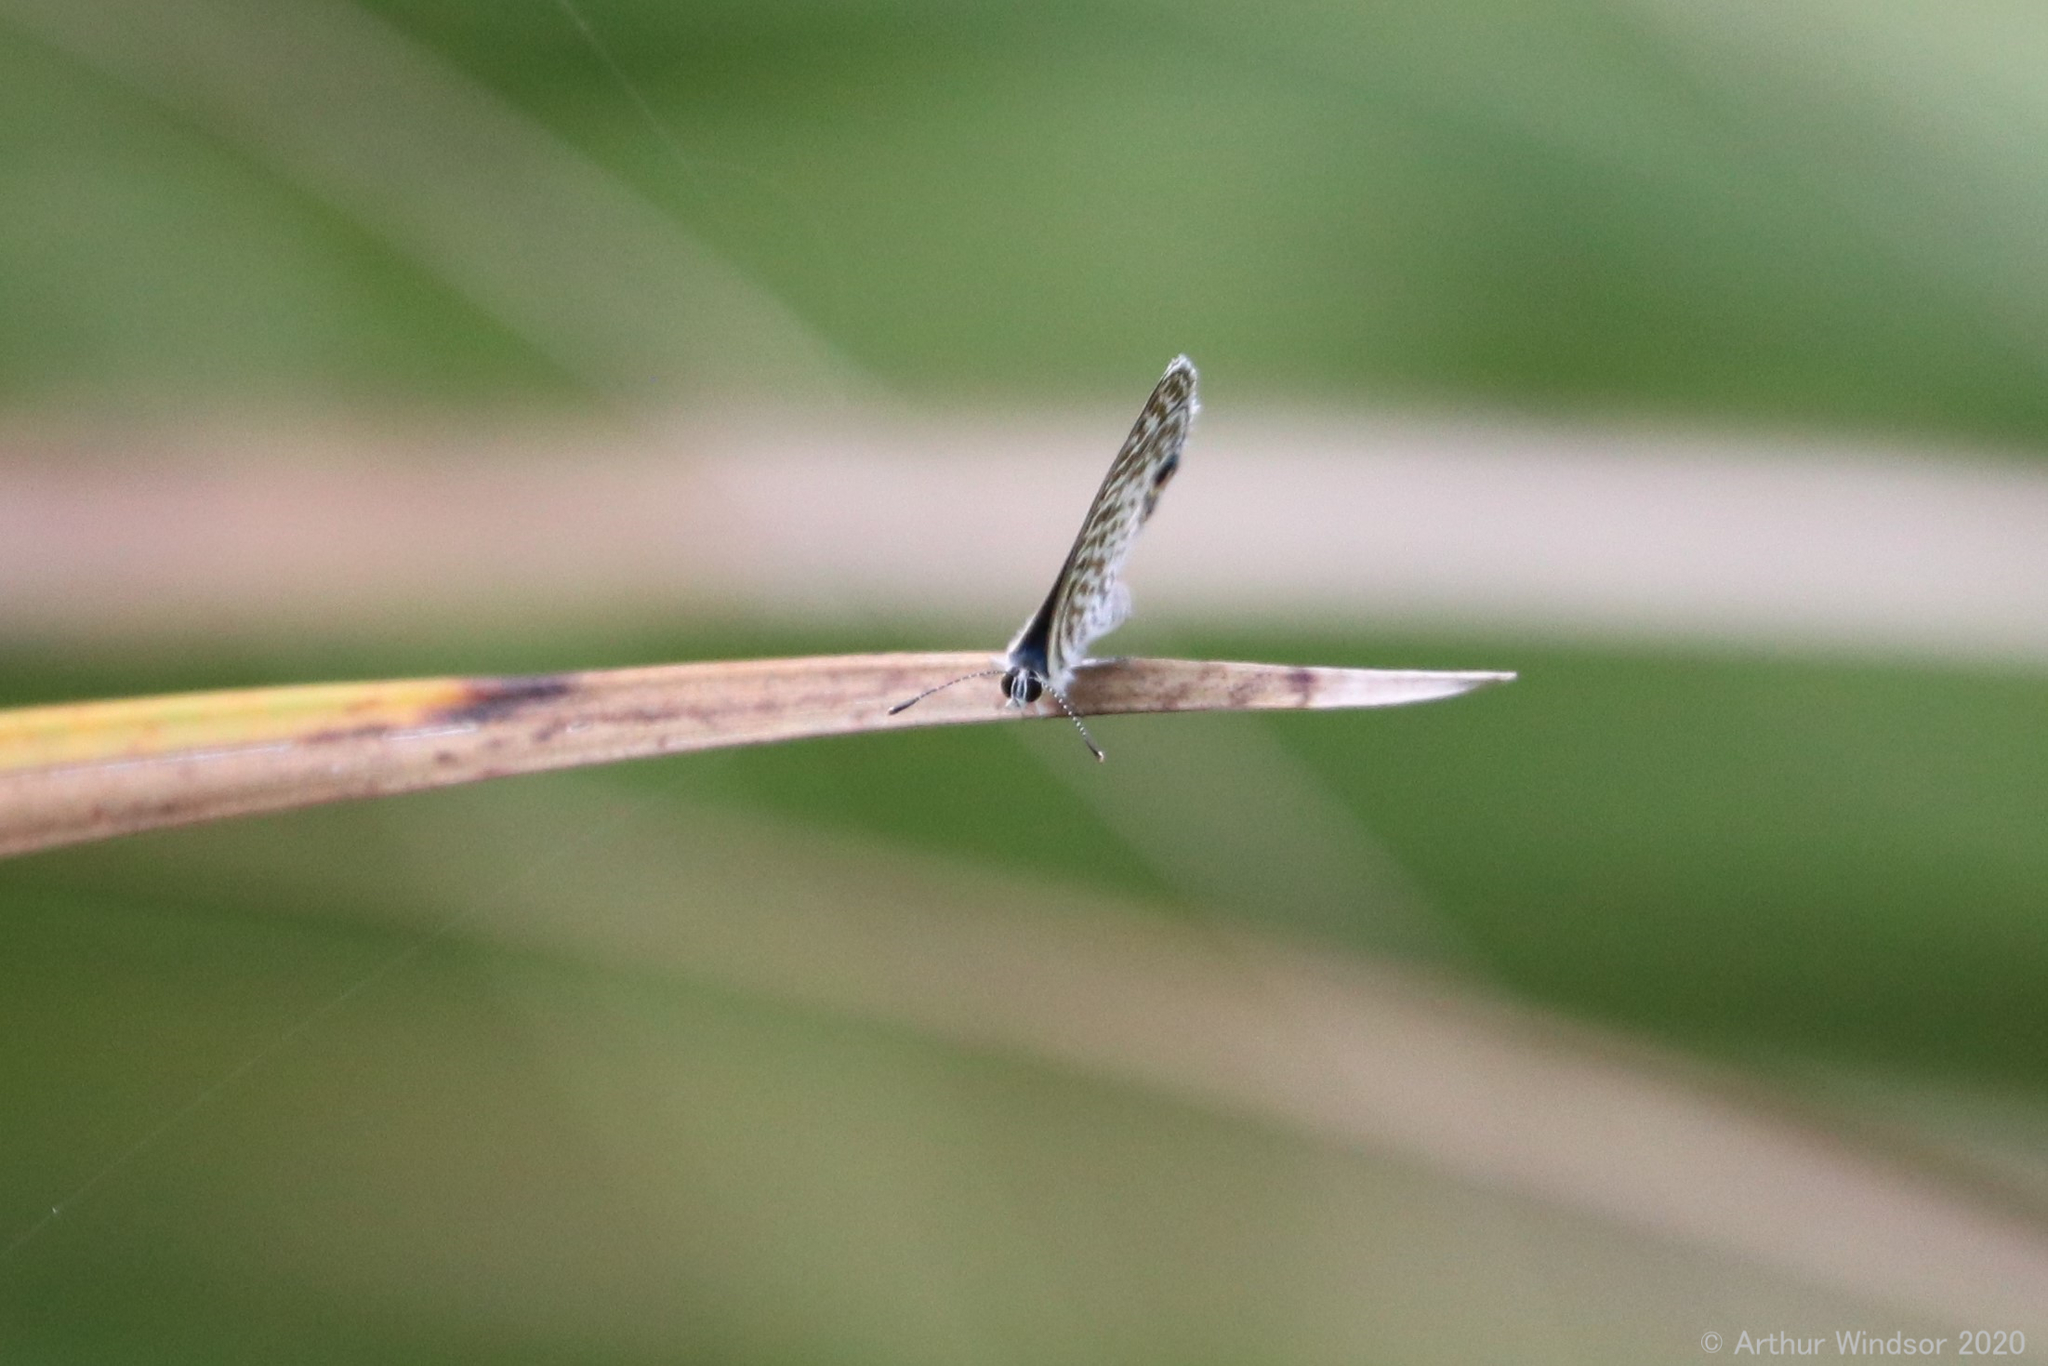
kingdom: Animalia
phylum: Arthropoda
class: Insecta
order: Lepidoptera
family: Lycaenidae
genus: Leptotes
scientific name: Leptotes cassius
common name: Cassius blue
